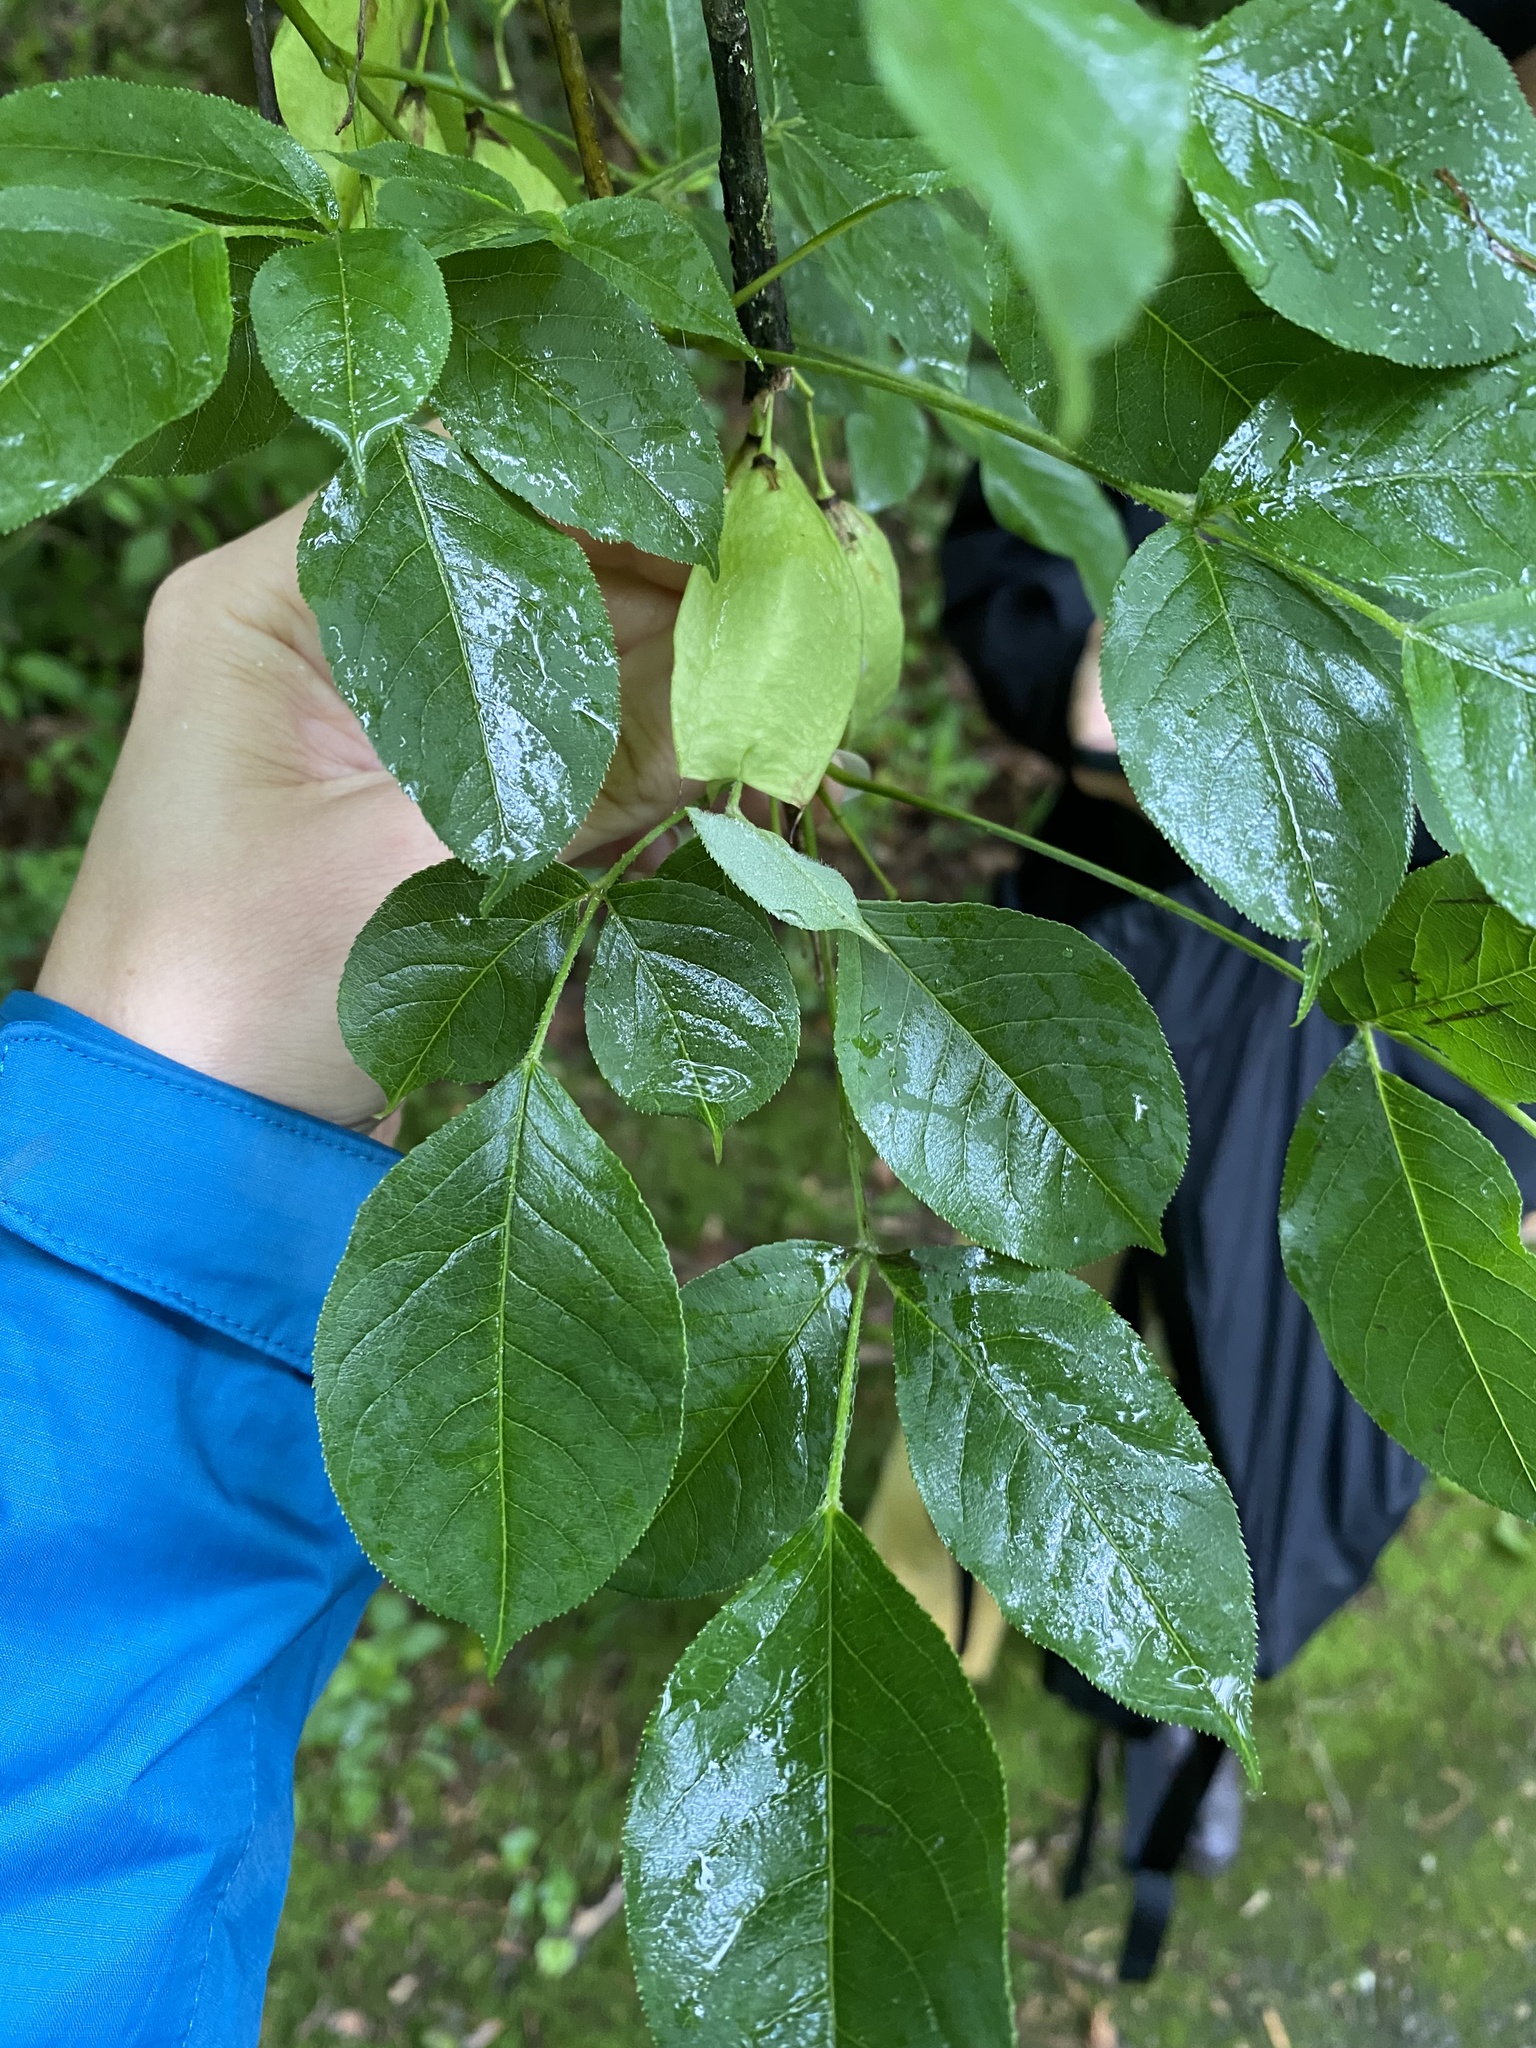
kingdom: Plantae
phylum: Tracheophyta
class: Magnoliopsida
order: Crossosomatales
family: Staphyleaceae
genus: Staphylea
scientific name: Staphylea trifolia
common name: American bladdernut
